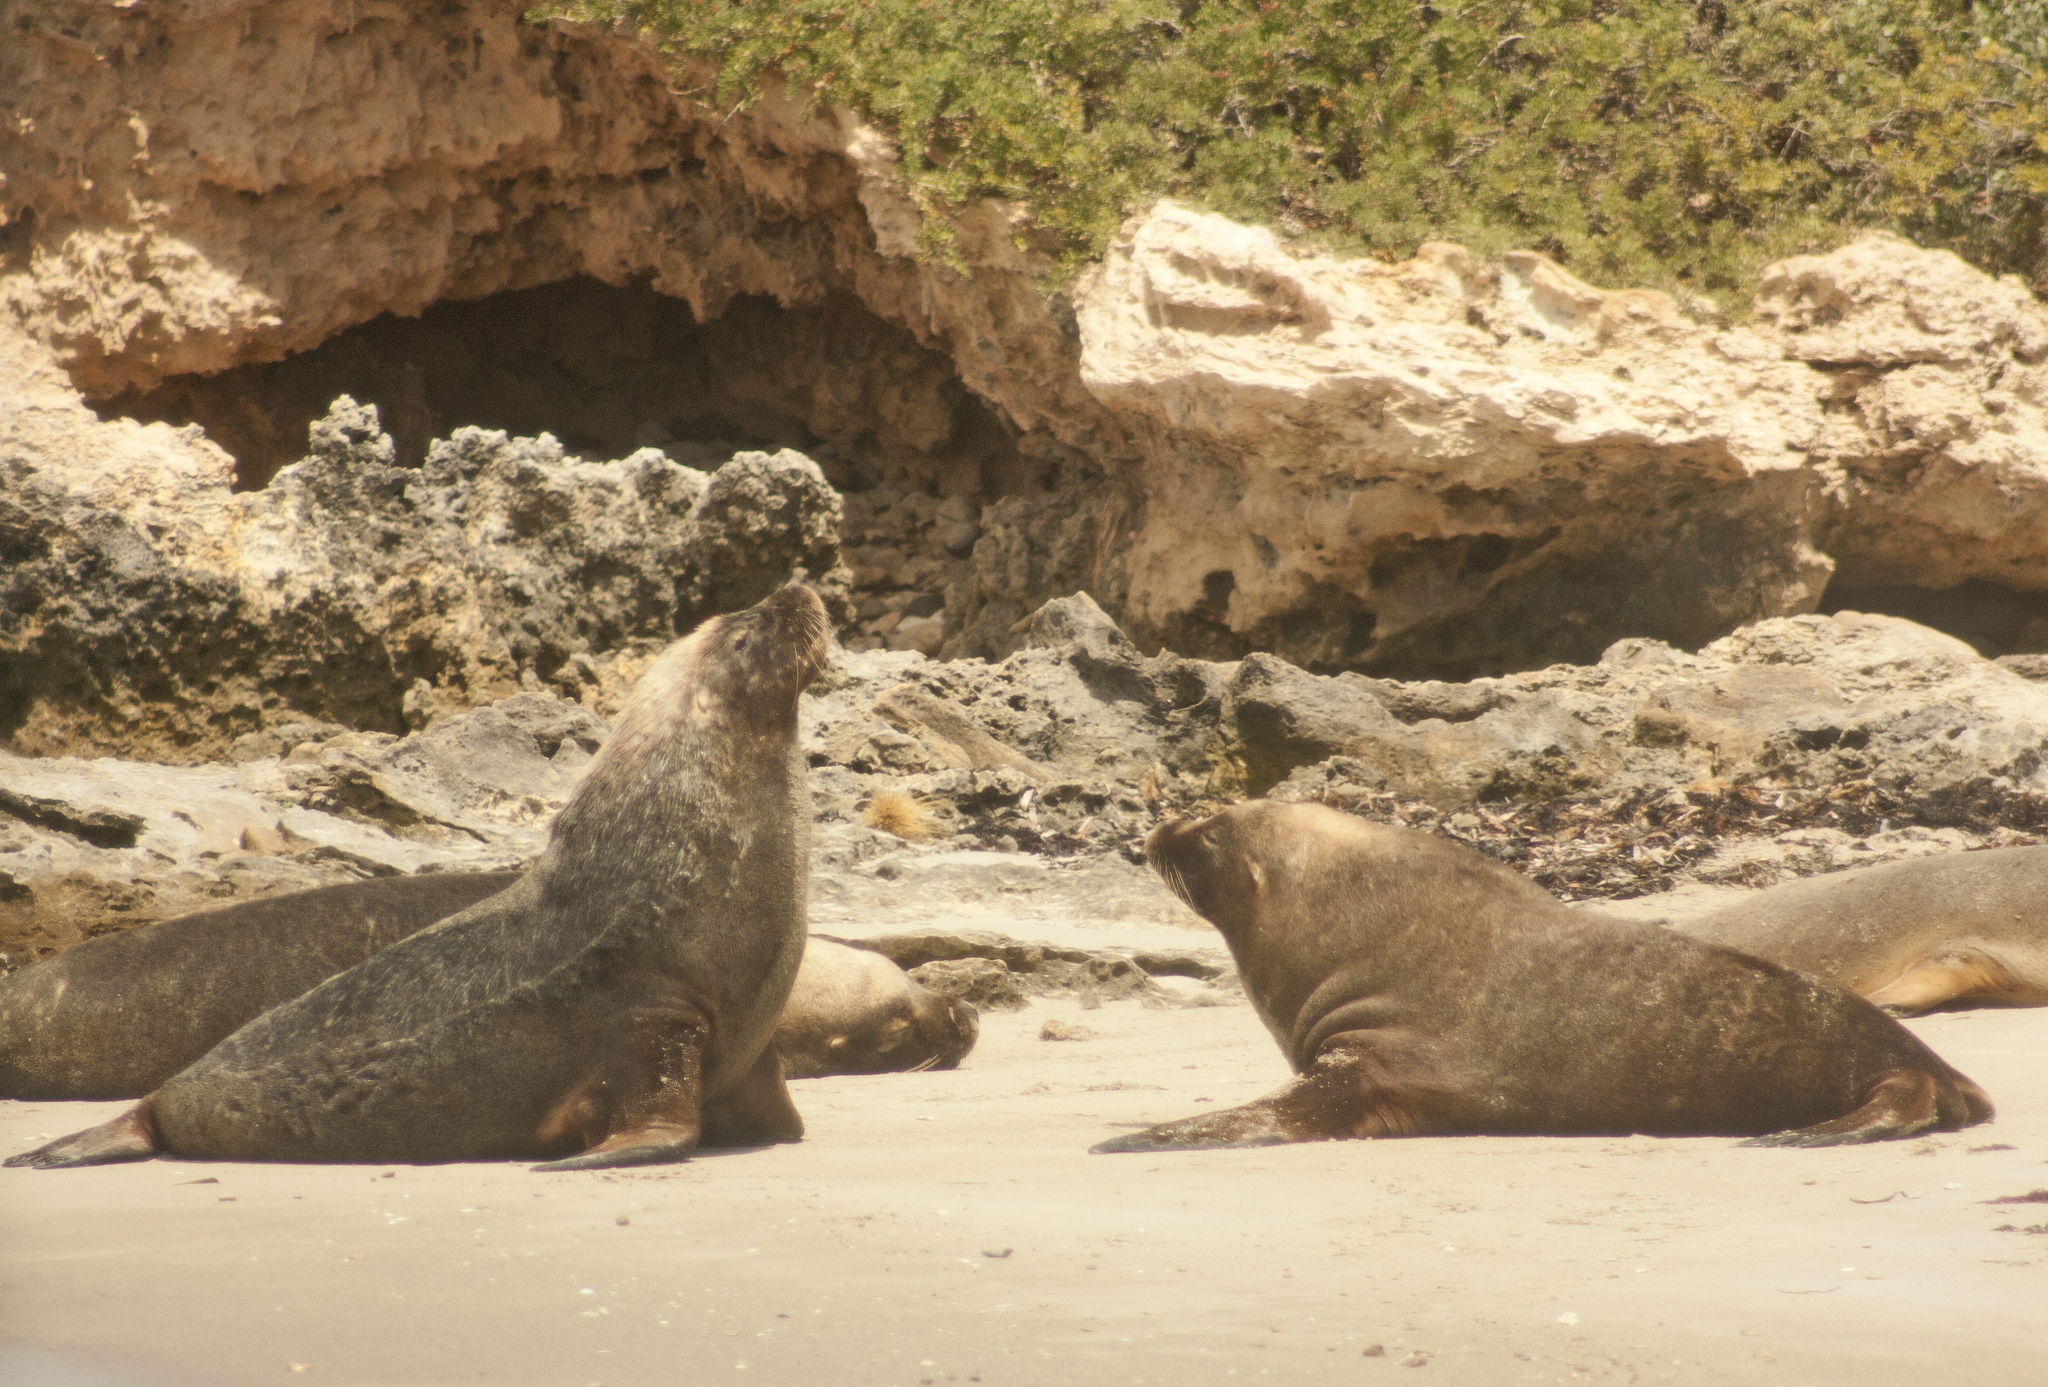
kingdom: Animalia
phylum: Chordata
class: Mammalia
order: Carnivora
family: Otariidae
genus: Neophoca
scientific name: Neophoca cinerea
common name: Australian sea lion
